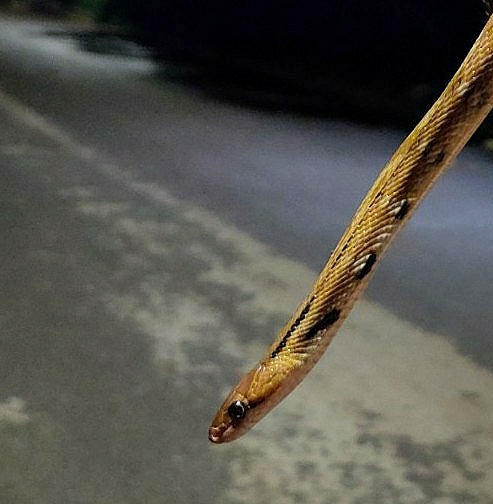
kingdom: Animalia
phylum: Chordata
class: Squamata
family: Colubridae
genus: Coelognathus
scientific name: Coelognathus helena
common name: Trinket snake
